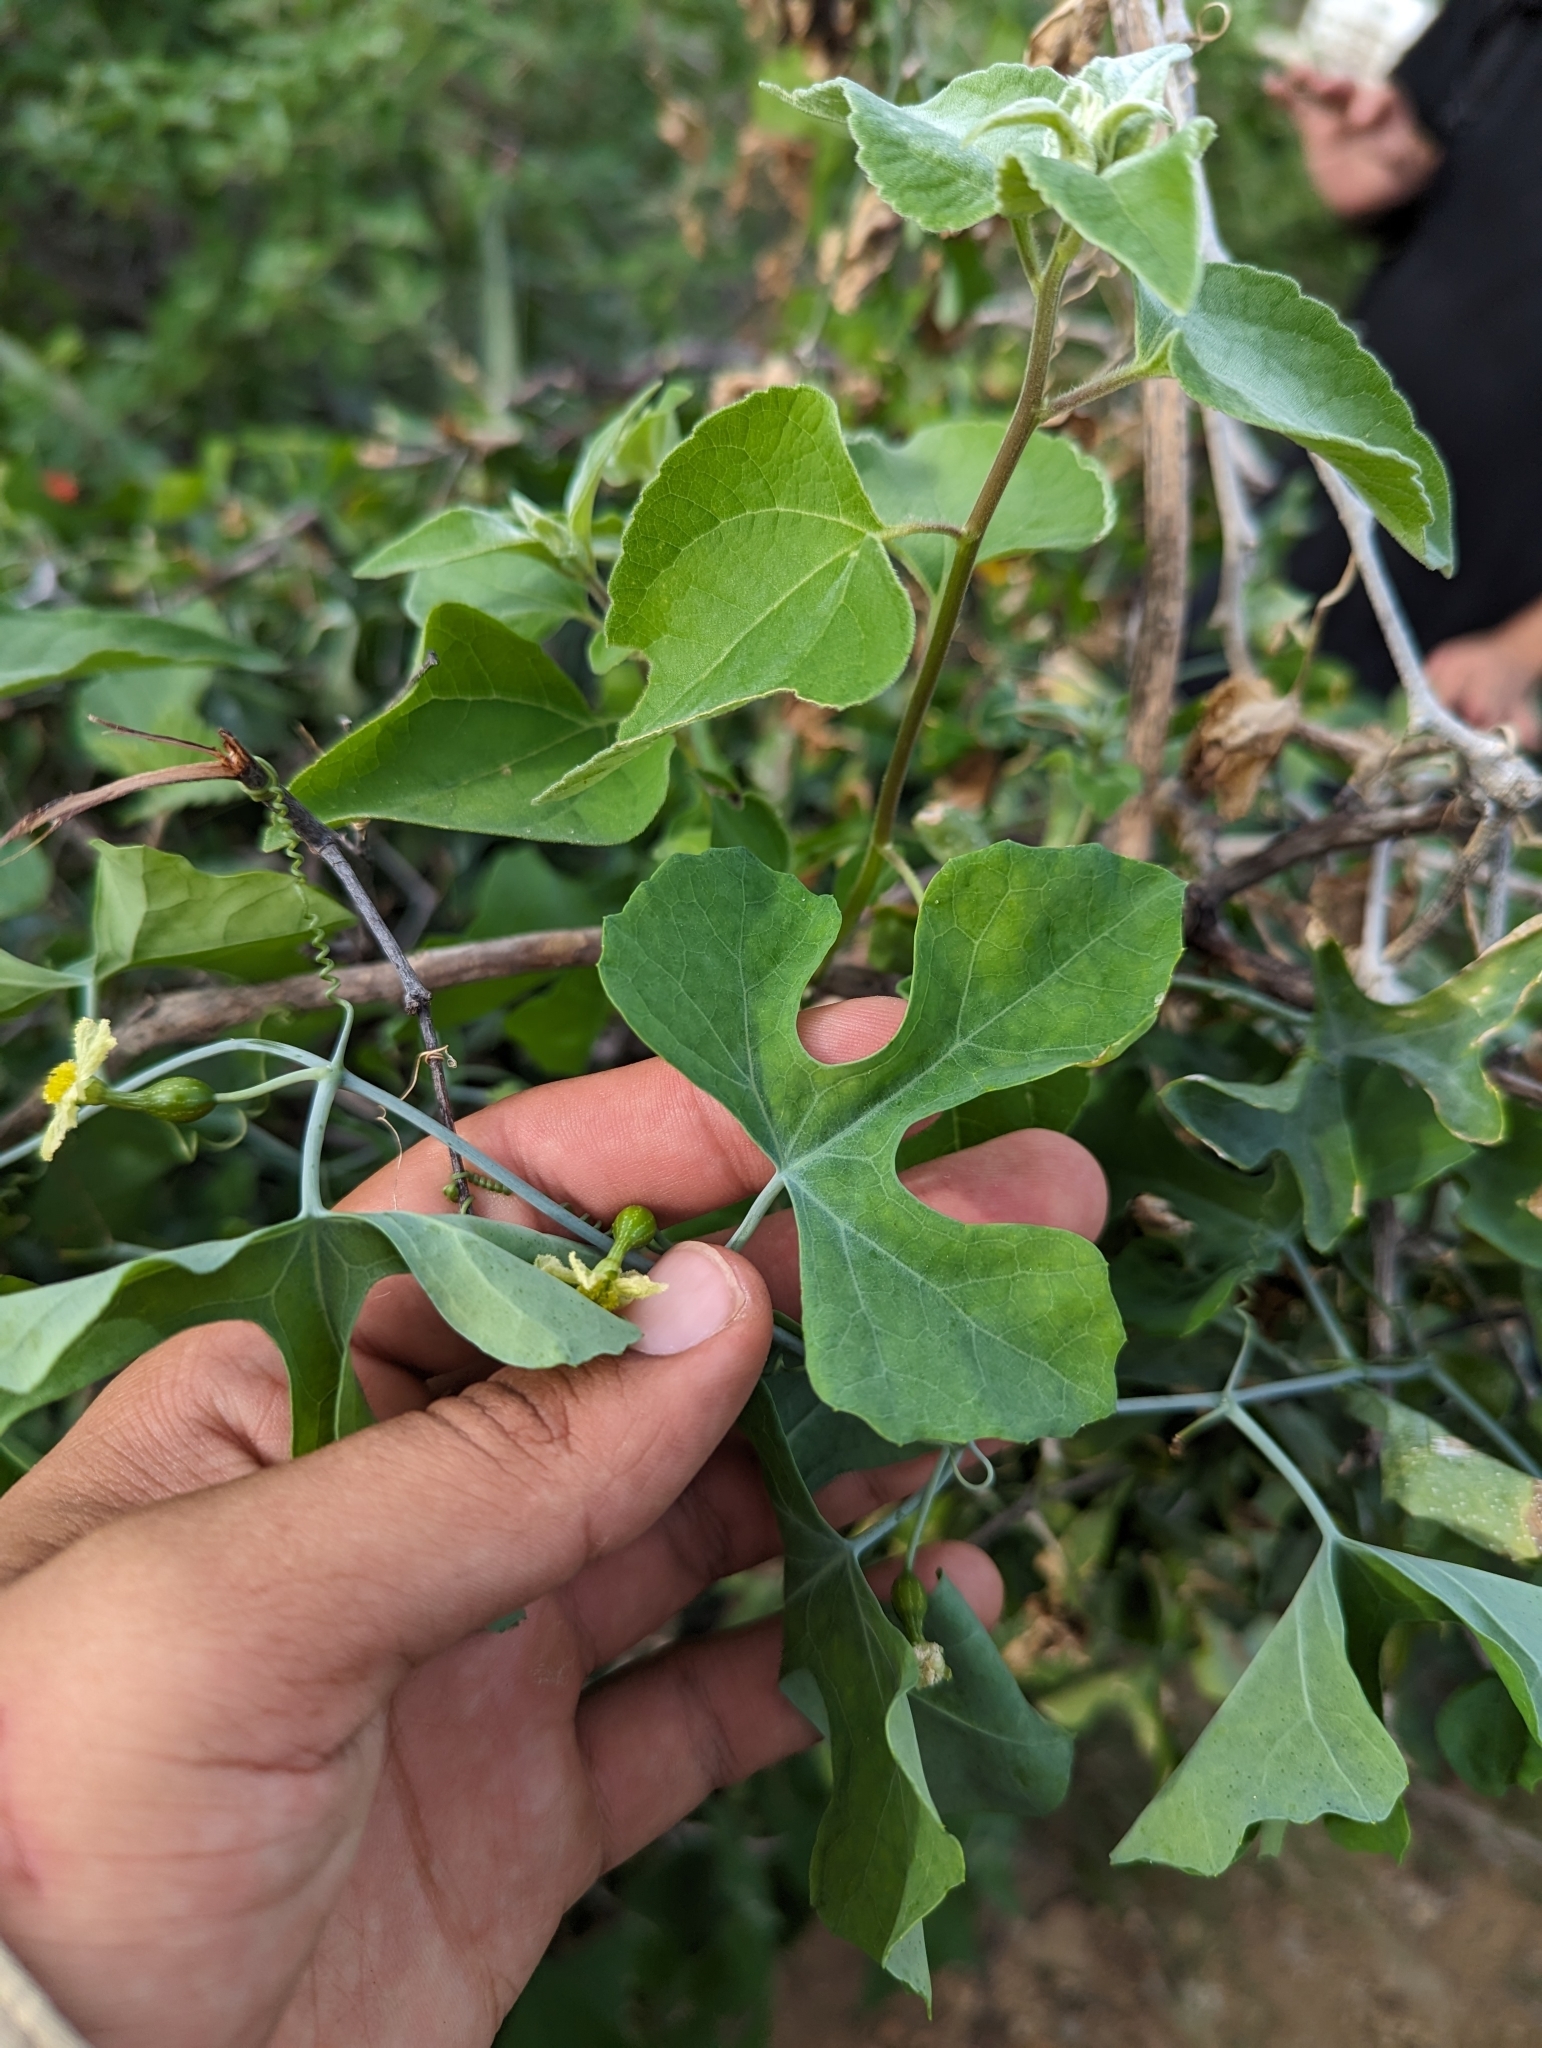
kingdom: Plantae
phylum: Tracheophyta
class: Magnoliopsida
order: Cucurbitales
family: Cucurbitaceae
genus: Ibervillea
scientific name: Ibervillea sonorae
